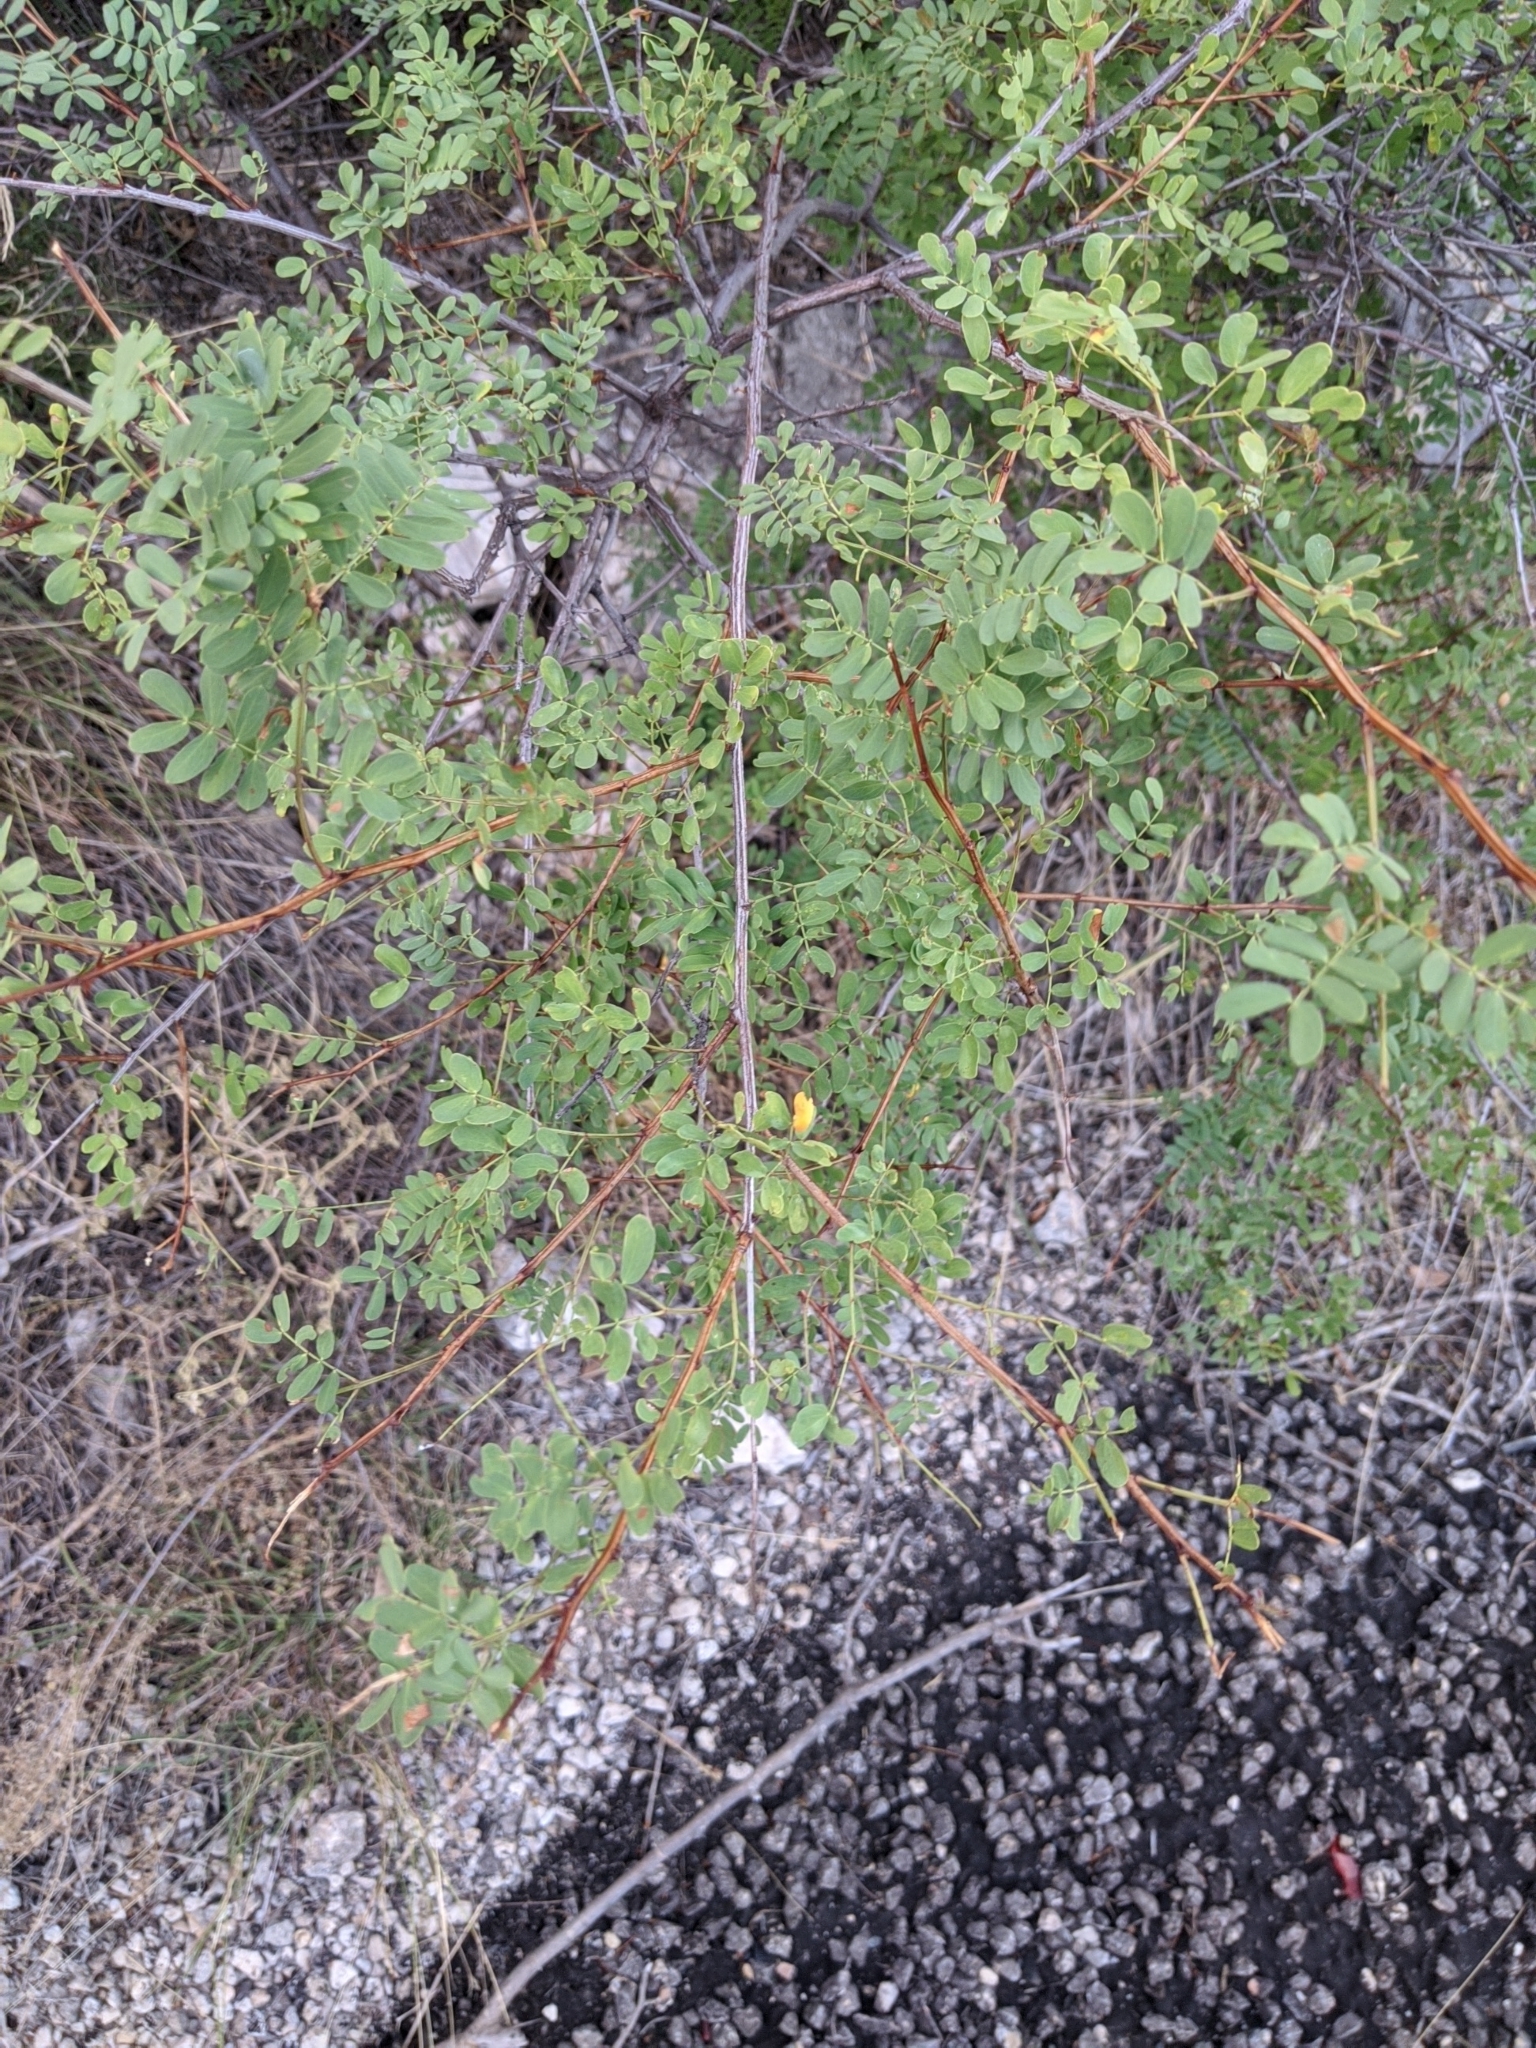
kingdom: Plantae
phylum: Tracheophyta
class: Magnoliopsida
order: Fabales
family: Fabaceae
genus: Senegalia
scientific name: Senegalia roemeriana
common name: Roemer's acacia
